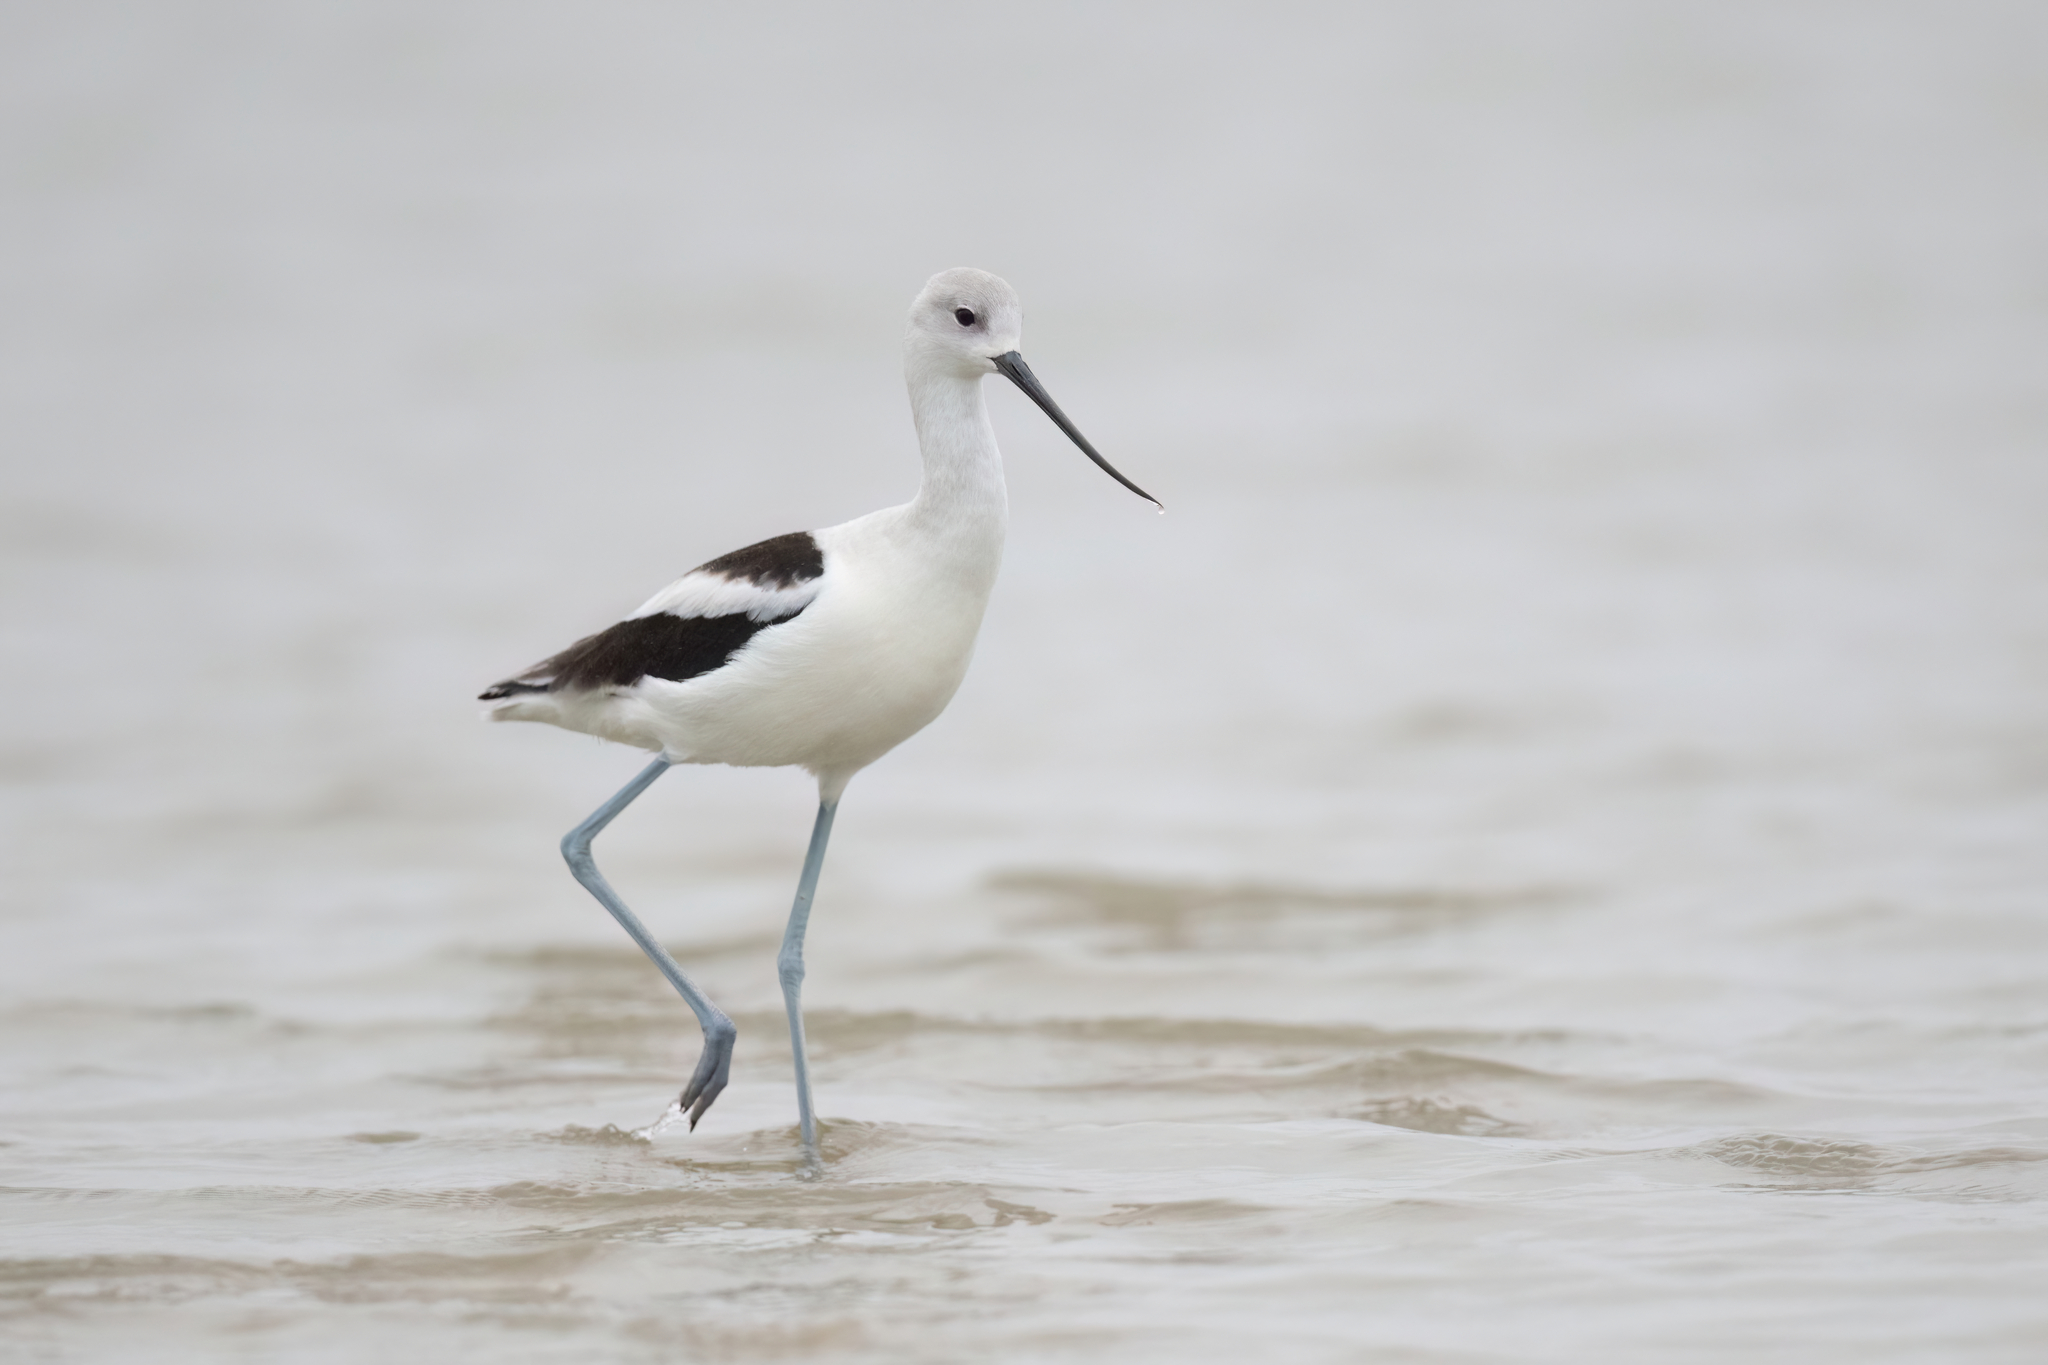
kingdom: Animalia
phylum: Chordata
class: Aves
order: Charadriiformes
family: Recurvirostridae
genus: Recurvirostra
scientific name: Recurvirostra americana
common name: American avocet
